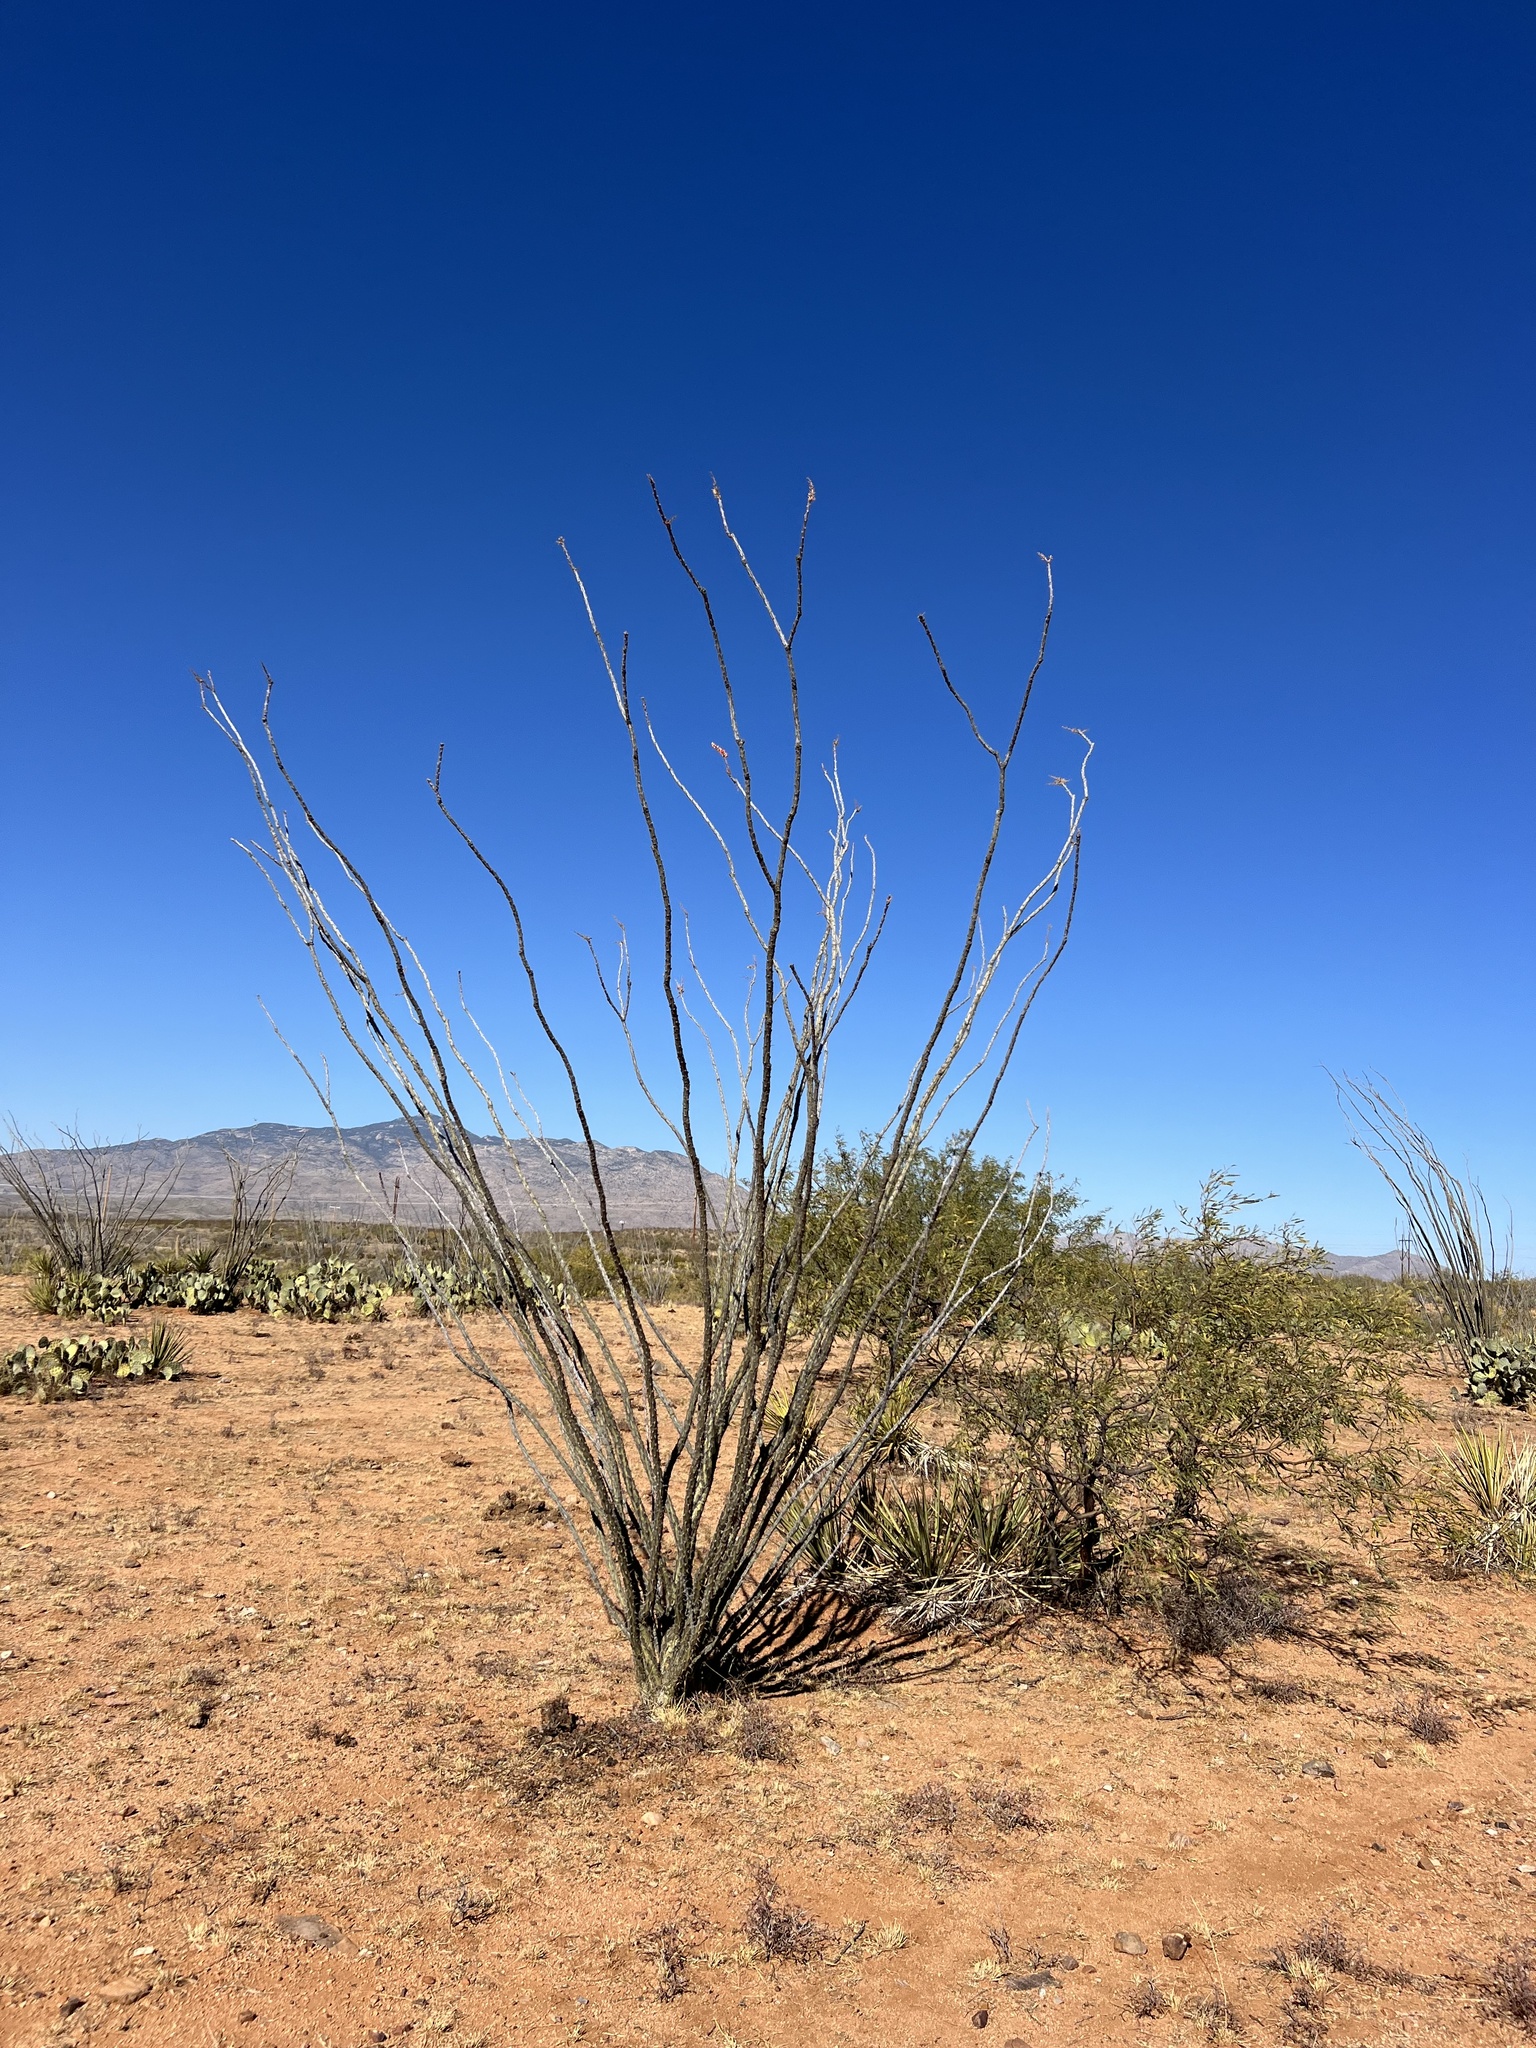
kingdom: Plantae
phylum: Tracheophyta
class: Magnoliopsida
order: Ericales
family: Fouquieriaceae
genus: Fouquieria
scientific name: Fouquieria splendens
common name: Vine-cactus
